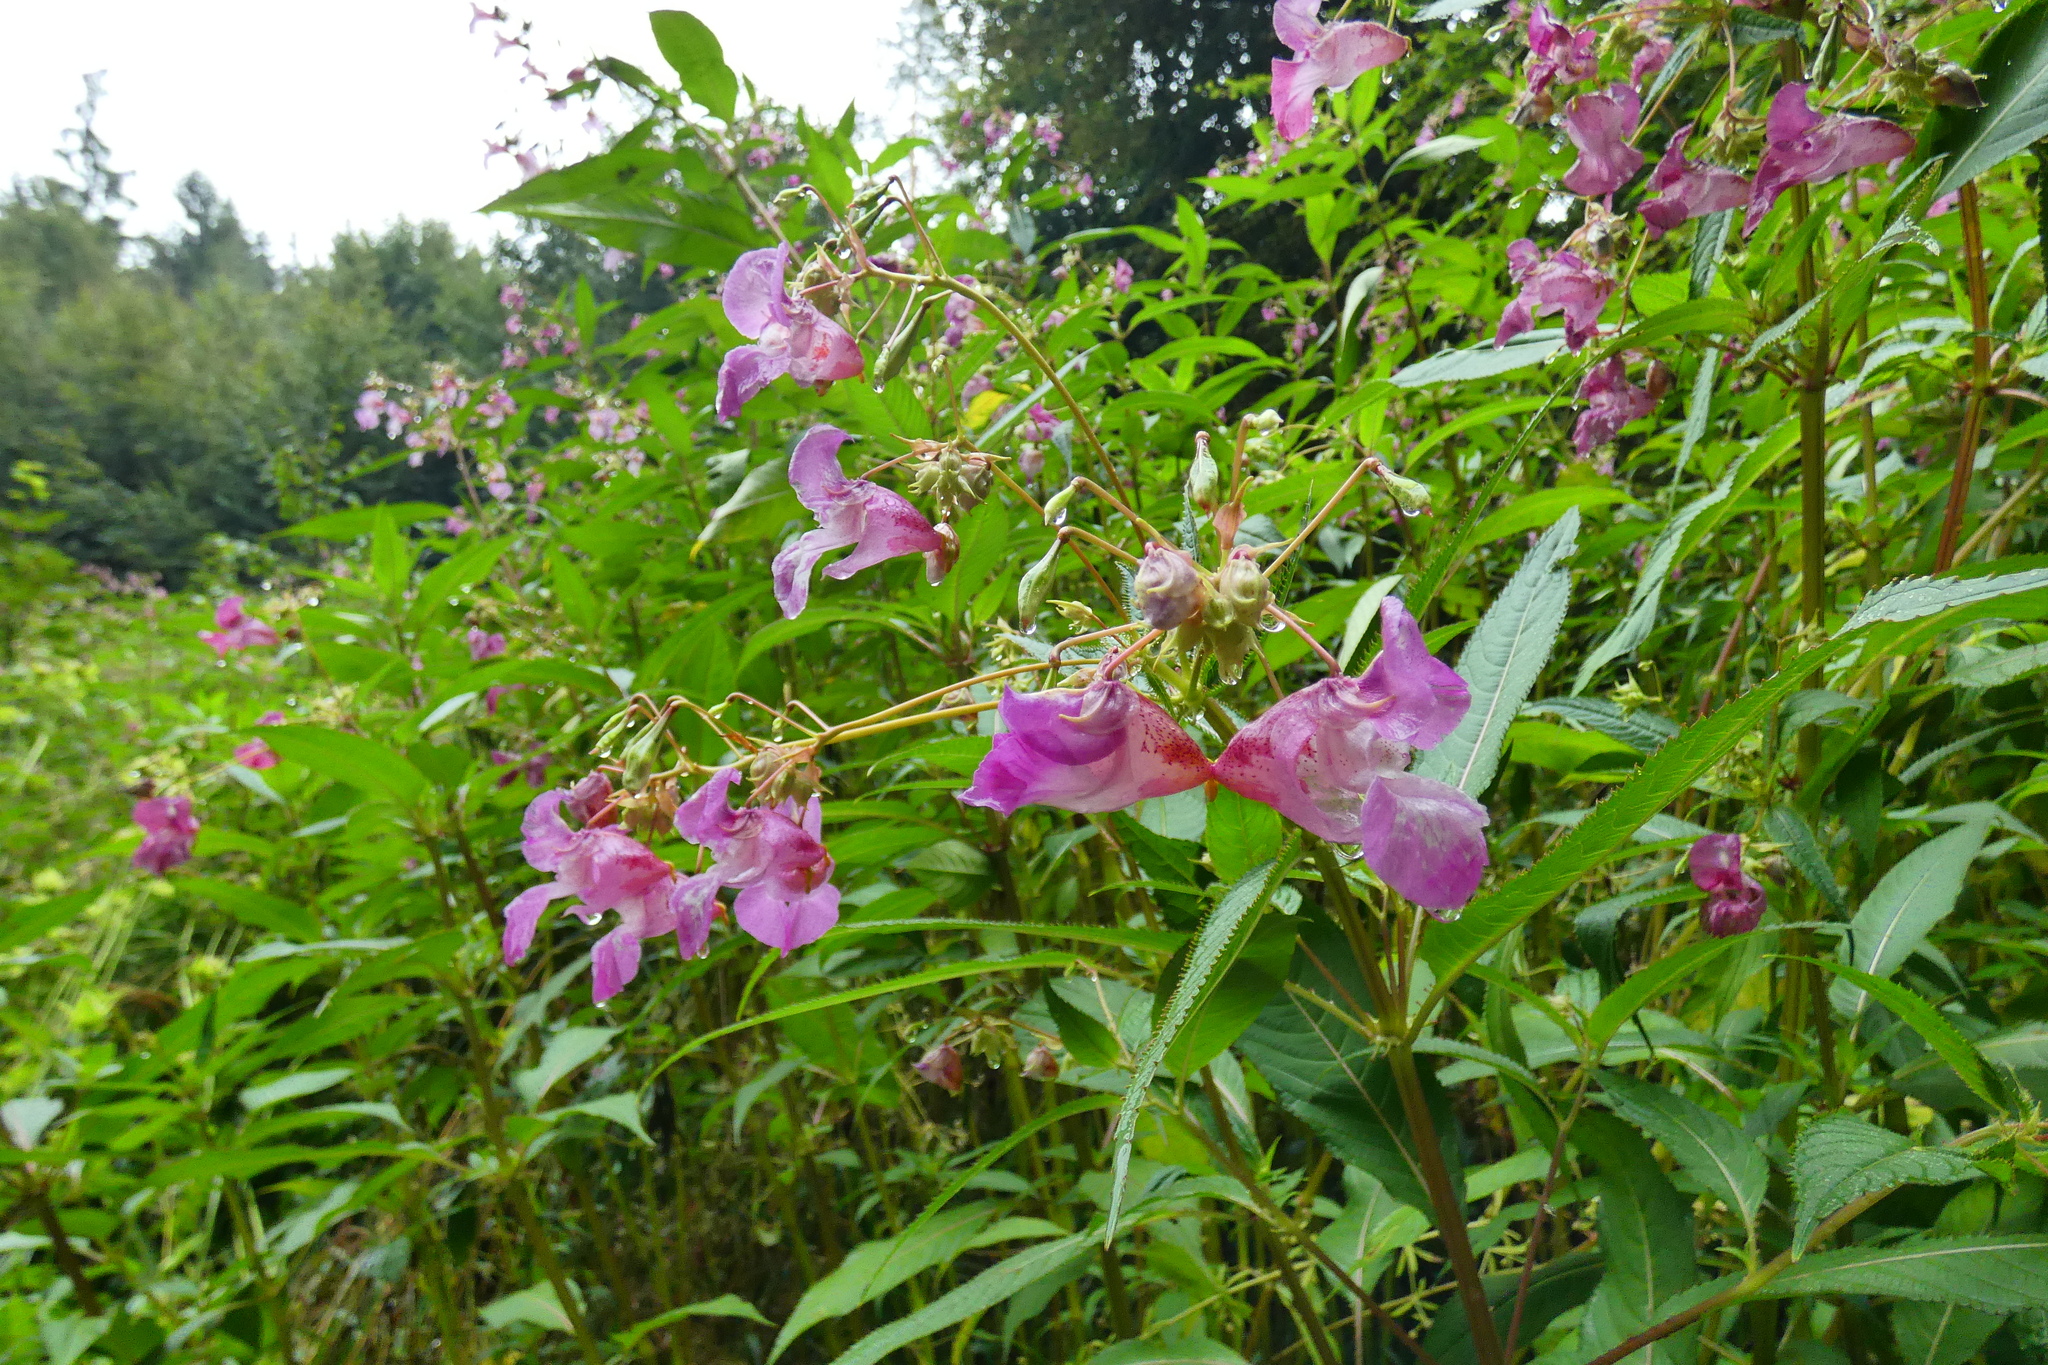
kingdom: Plantae
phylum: Tracheophyta
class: Magnoliopsida
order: Ericales
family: Balsaminaceae
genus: Impatiens
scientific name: Impatiens glandulifera
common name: Himalayan balsam
